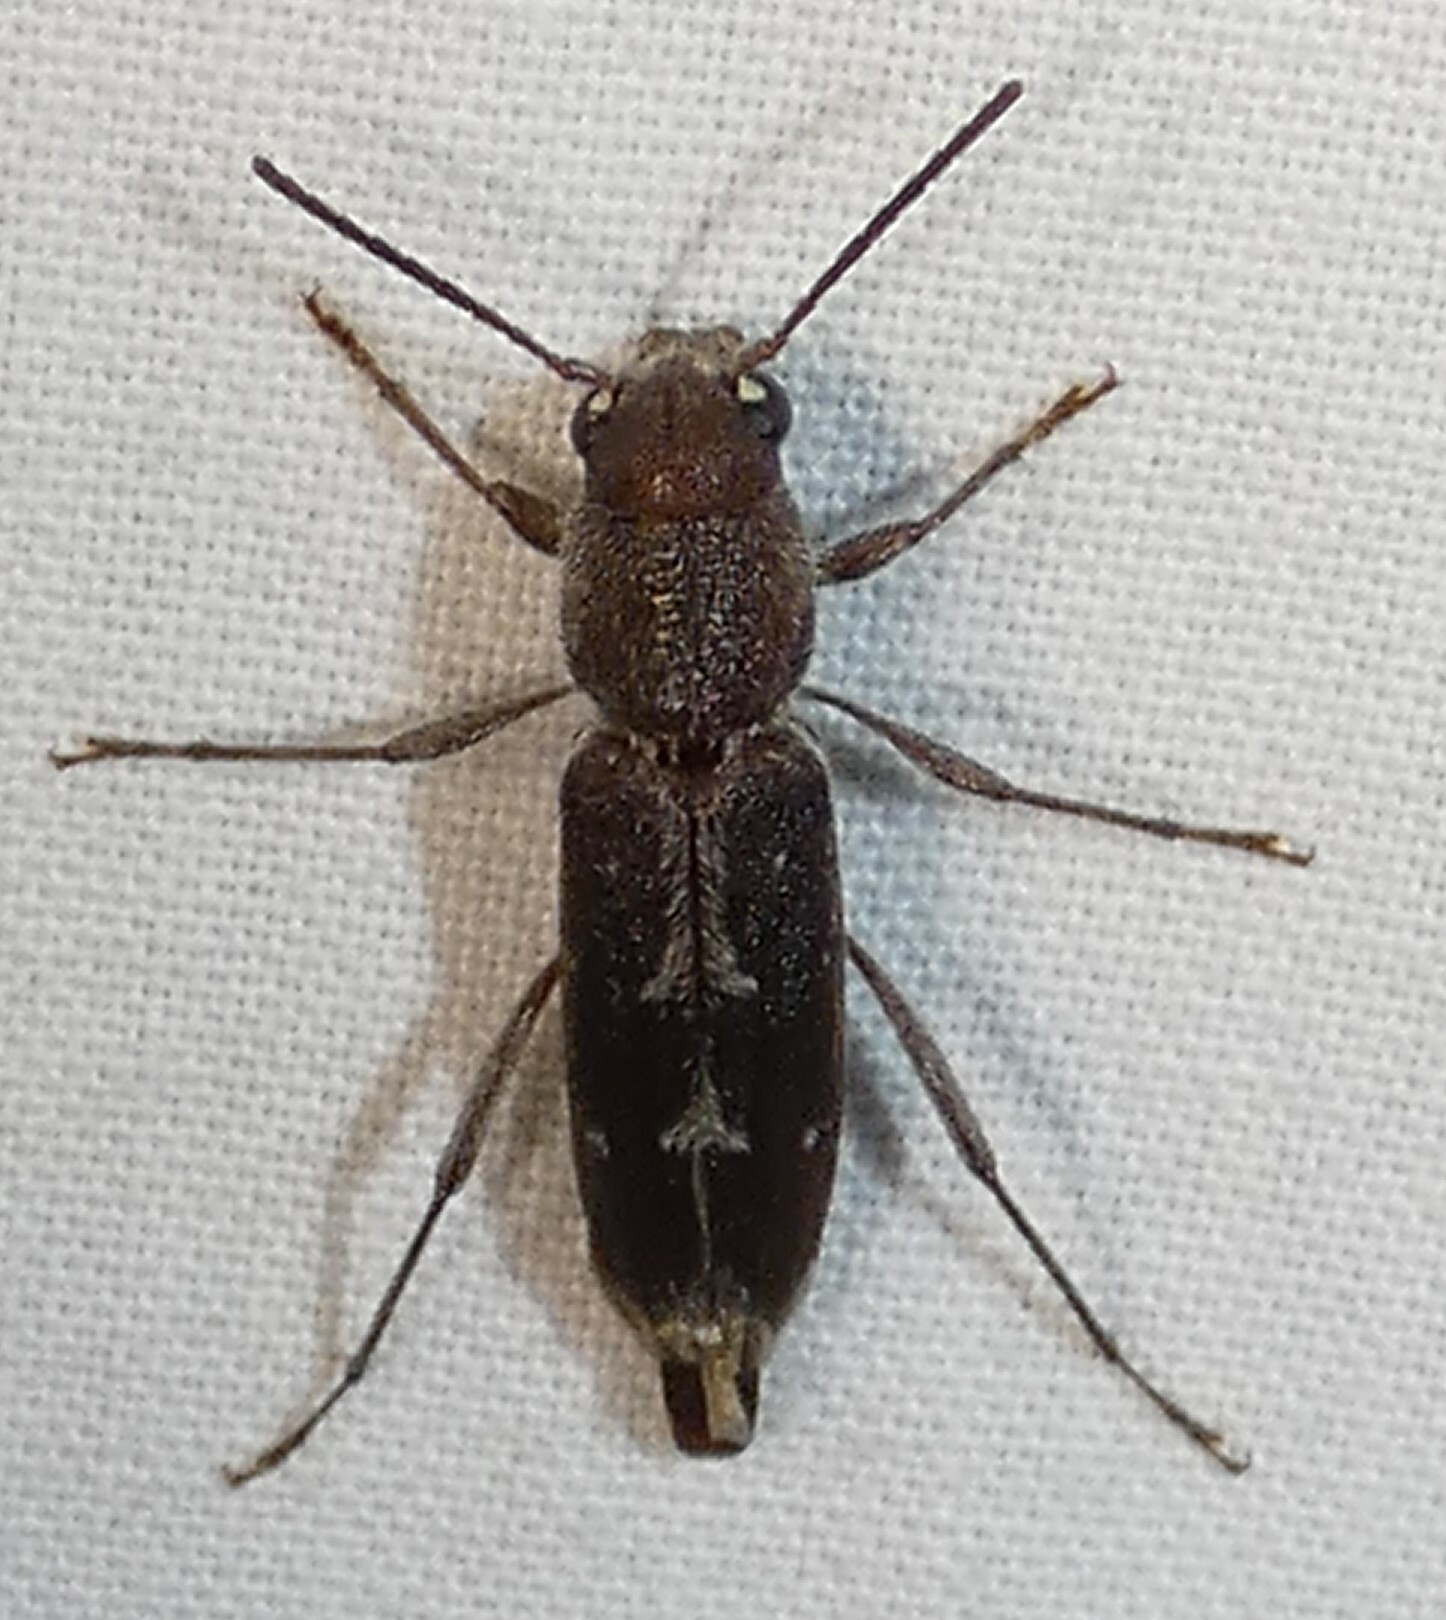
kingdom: Animalia
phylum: Arthropoda
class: Insecta
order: Coleoptera
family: Cerambycidae
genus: Xylotrechus
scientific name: Xylotrechus sagittatus
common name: Arrowhead borer
